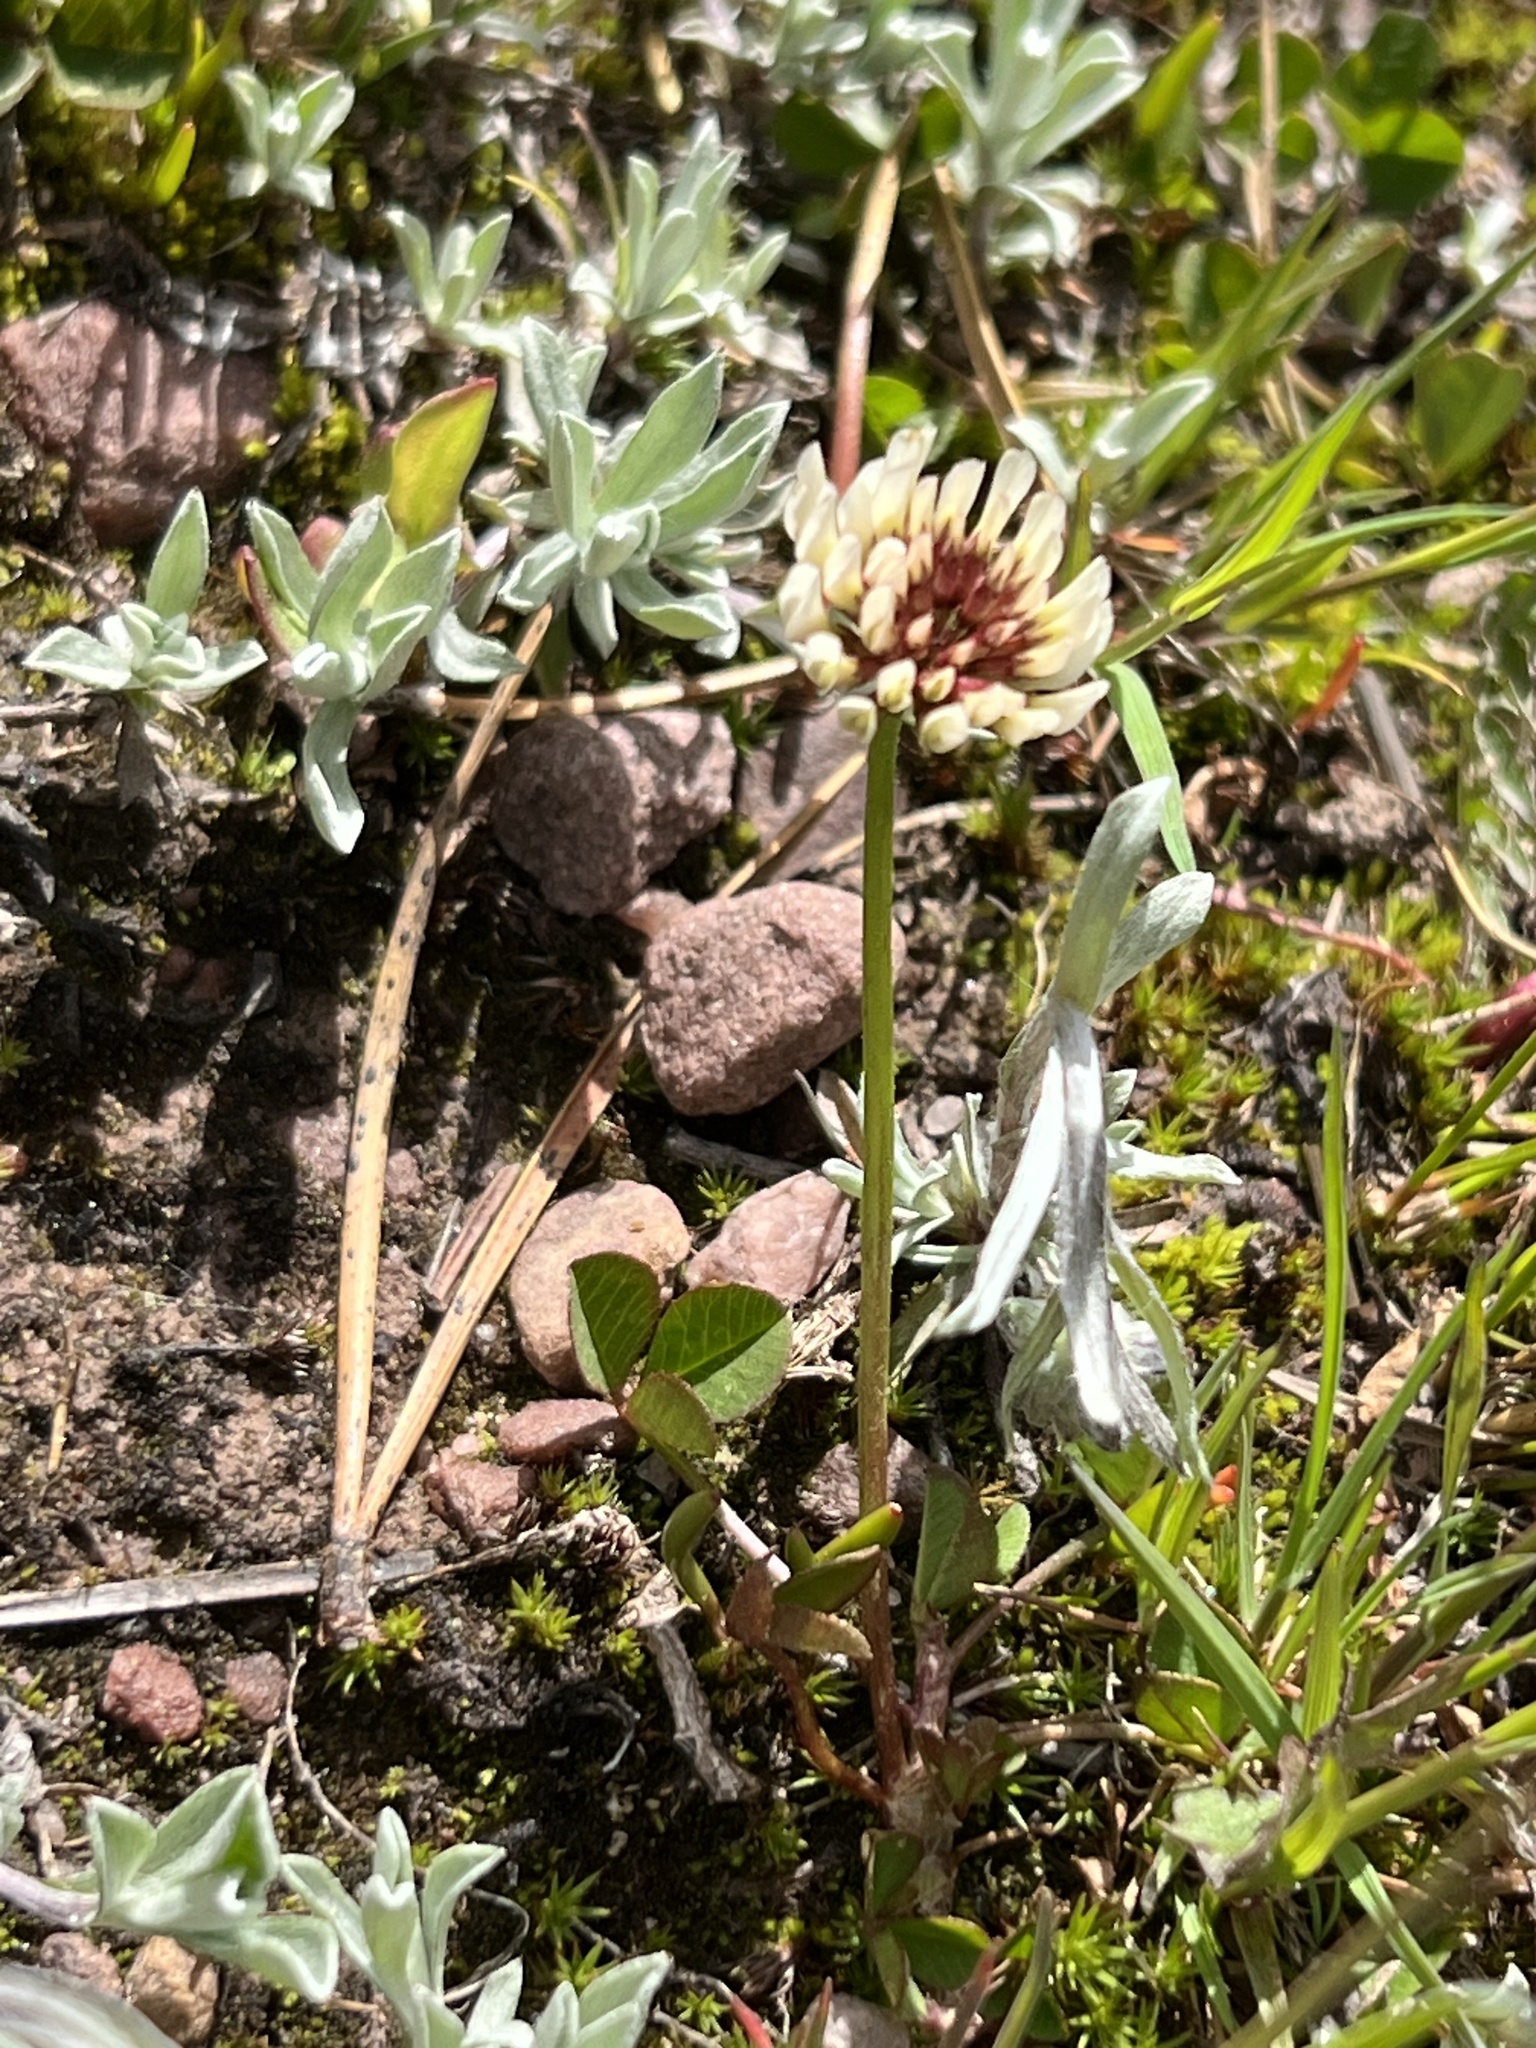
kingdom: Plantae
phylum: Tracheophyta
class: Magnoliopsida
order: Fabales
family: Fabaceae
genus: Trifolium
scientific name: Trifolium repens
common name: White clover
